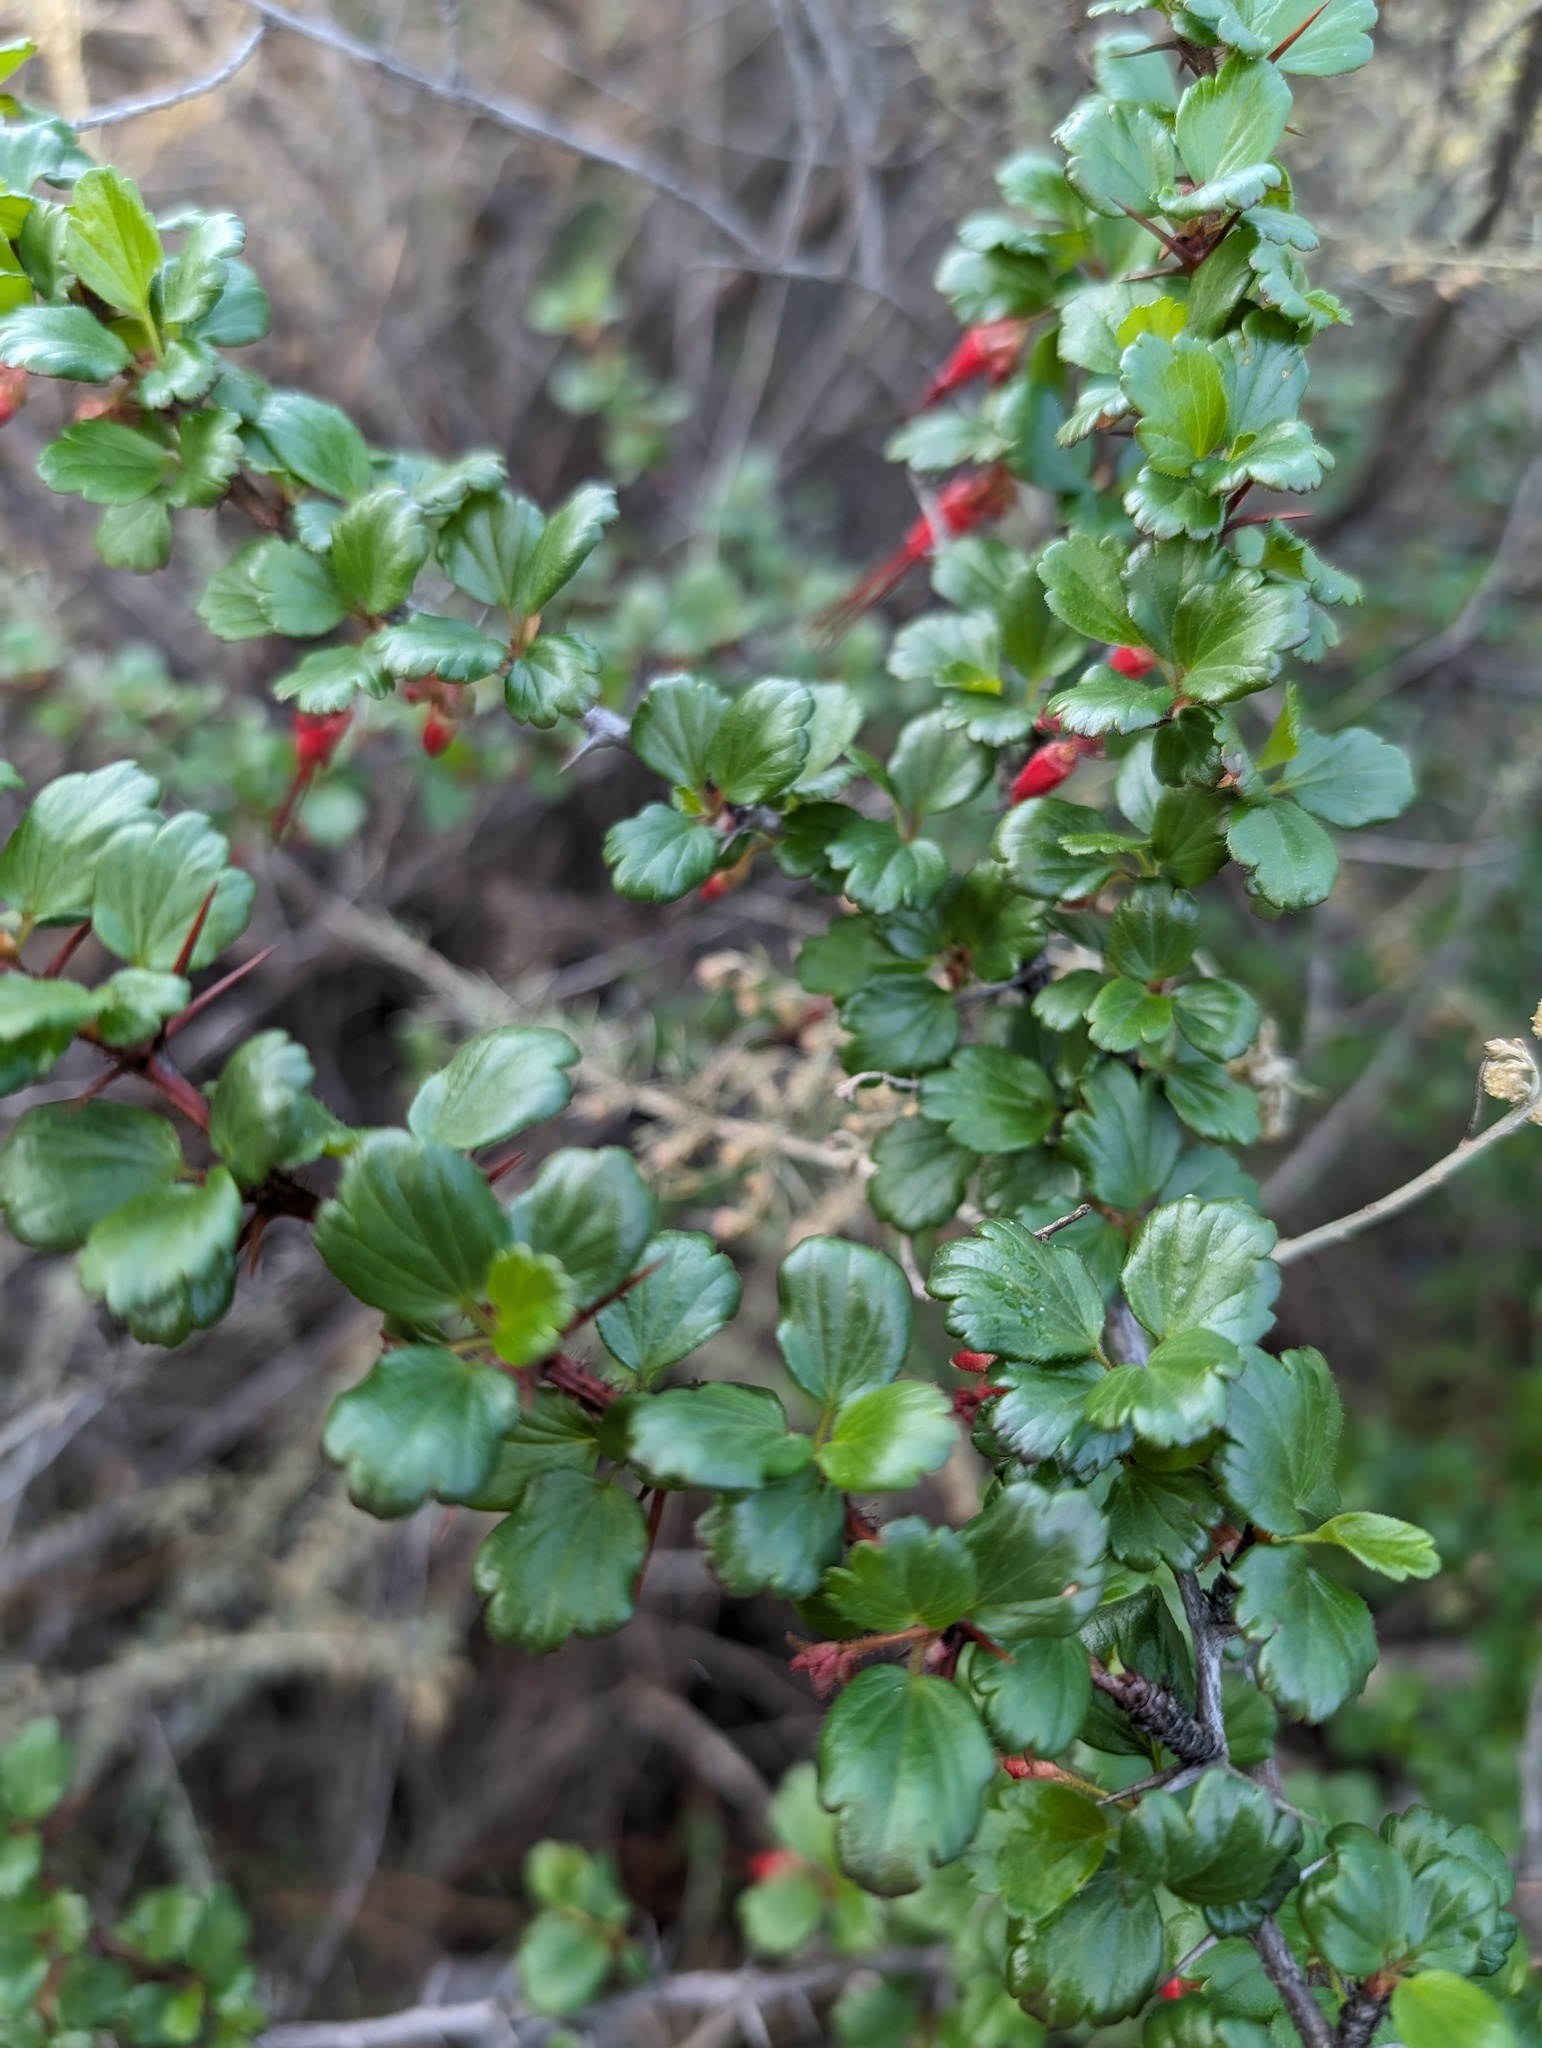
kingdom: Plantae
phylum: Tracheophyta
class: Magnoliopsida
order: Saxifragales
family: Grossulariaceae
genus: Ribes
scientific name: Ribes speciosum
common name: Fuchsia-flower gooseberry
